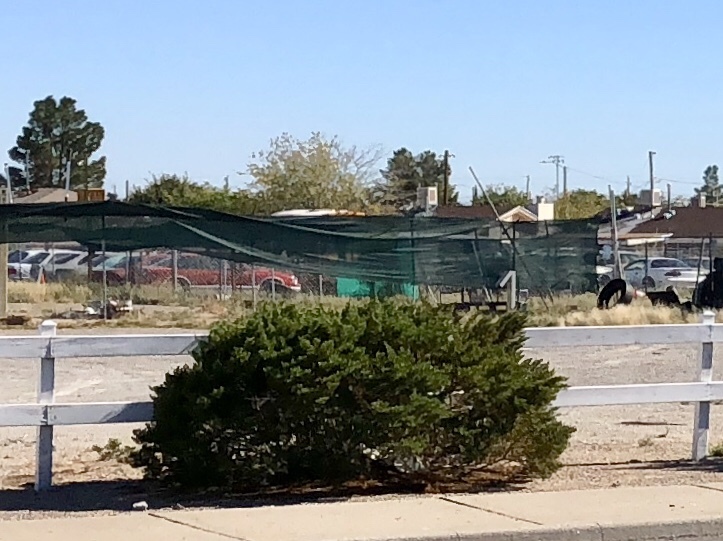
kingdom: Plantae
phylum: Tracheophyta
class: Magnoliopsida
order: Zygophyllales
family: Zygophyllaceae
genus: Larrea
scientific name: Larrea tridentata
